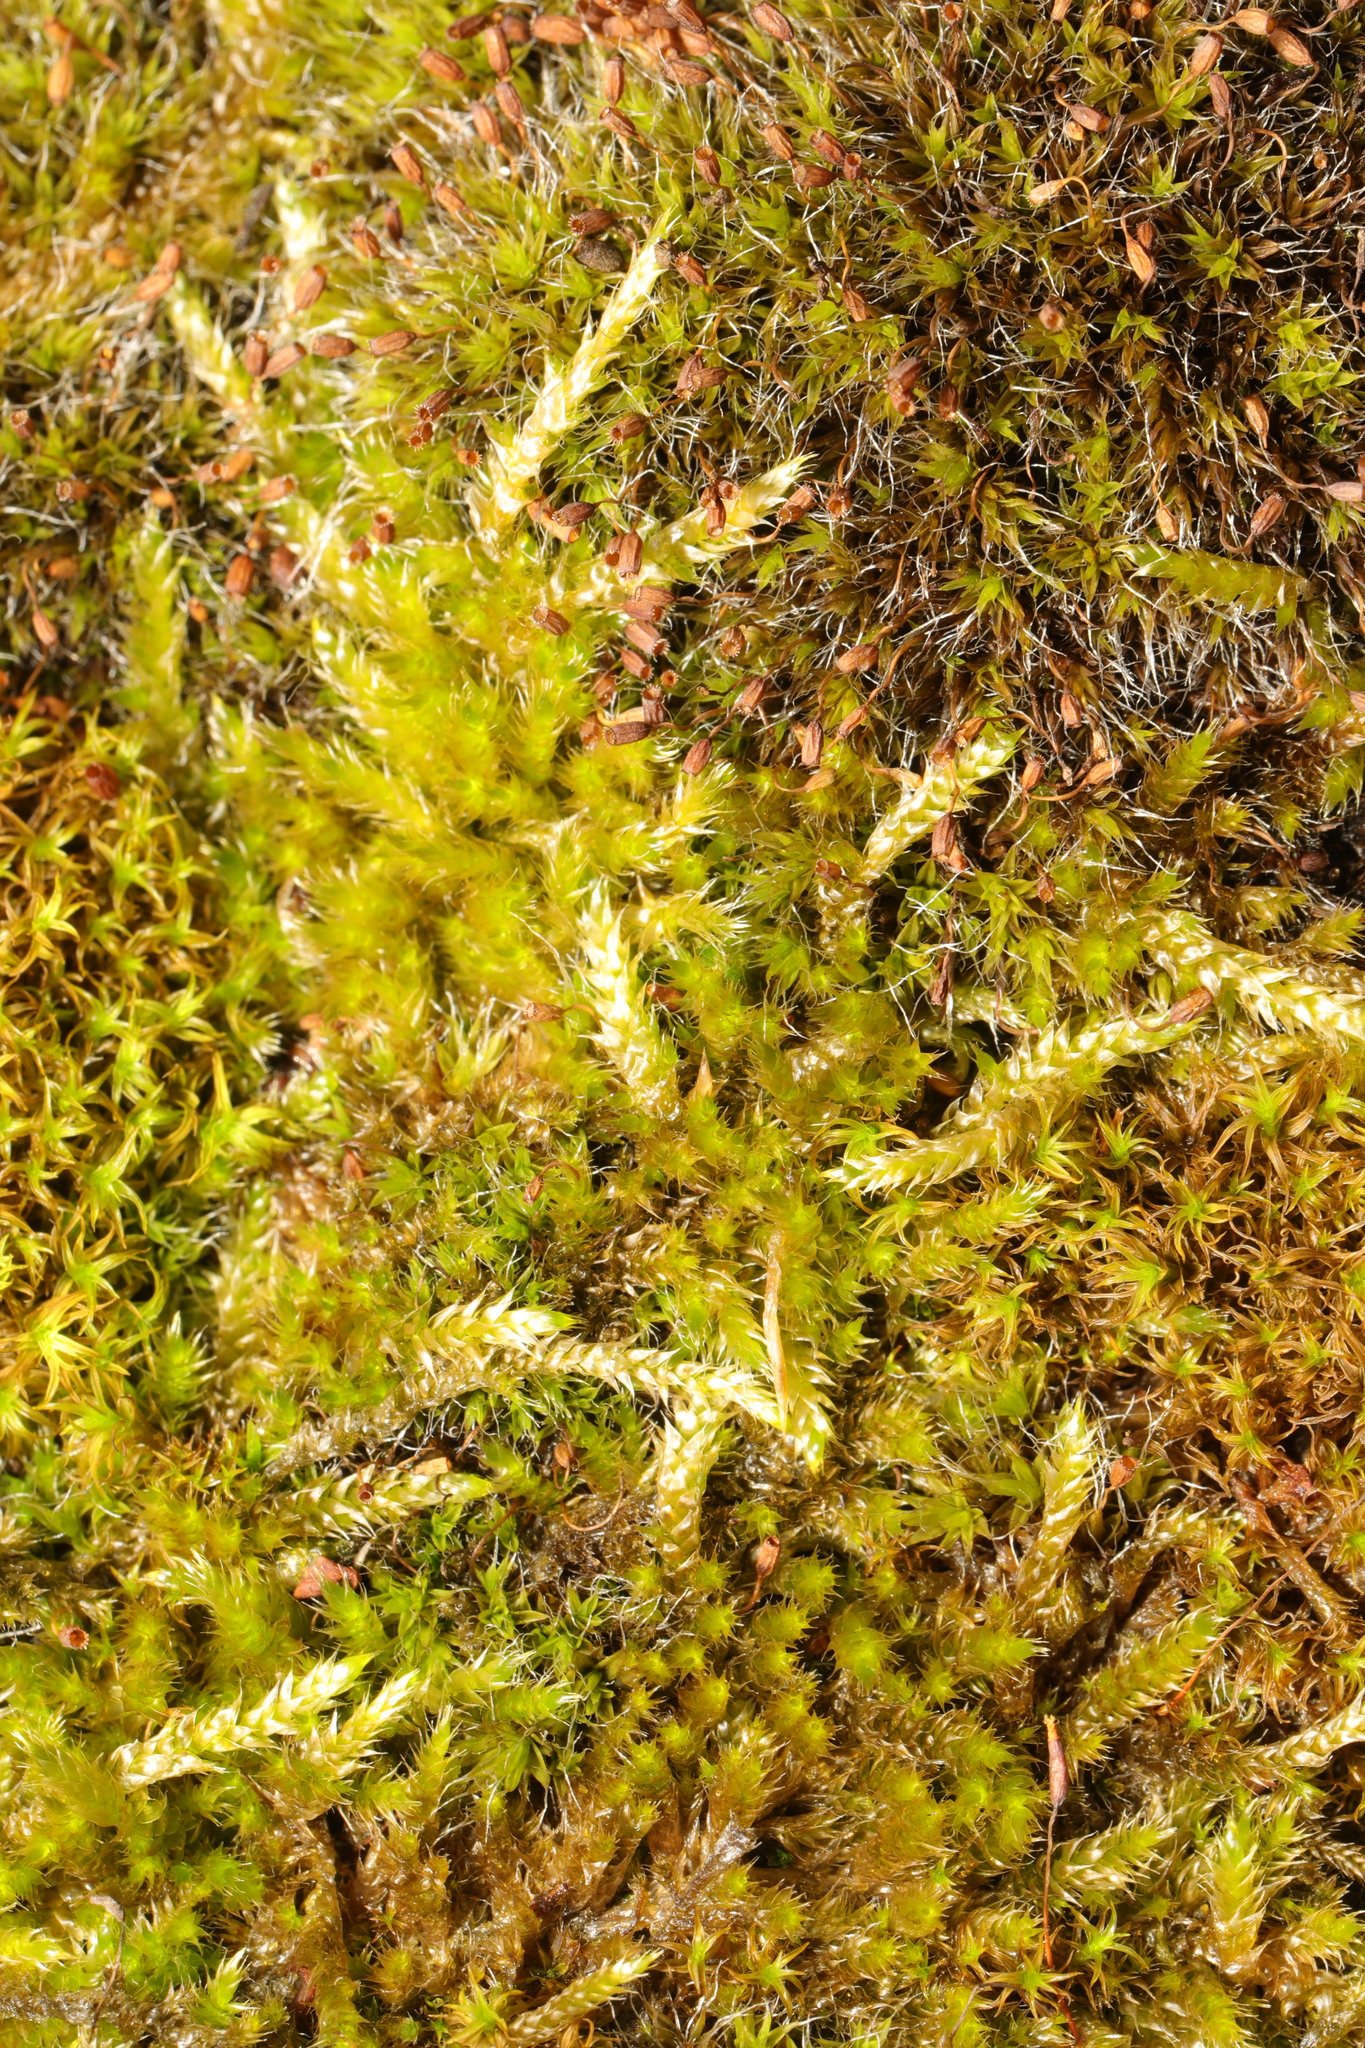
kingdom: Plantae
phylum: Bryophyta
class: Bryopsida
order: Hypnales
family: Hypnaceae
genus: Hypnum
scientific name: Hypnum cupressiforme
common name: Cypress-leaved plait-moss
